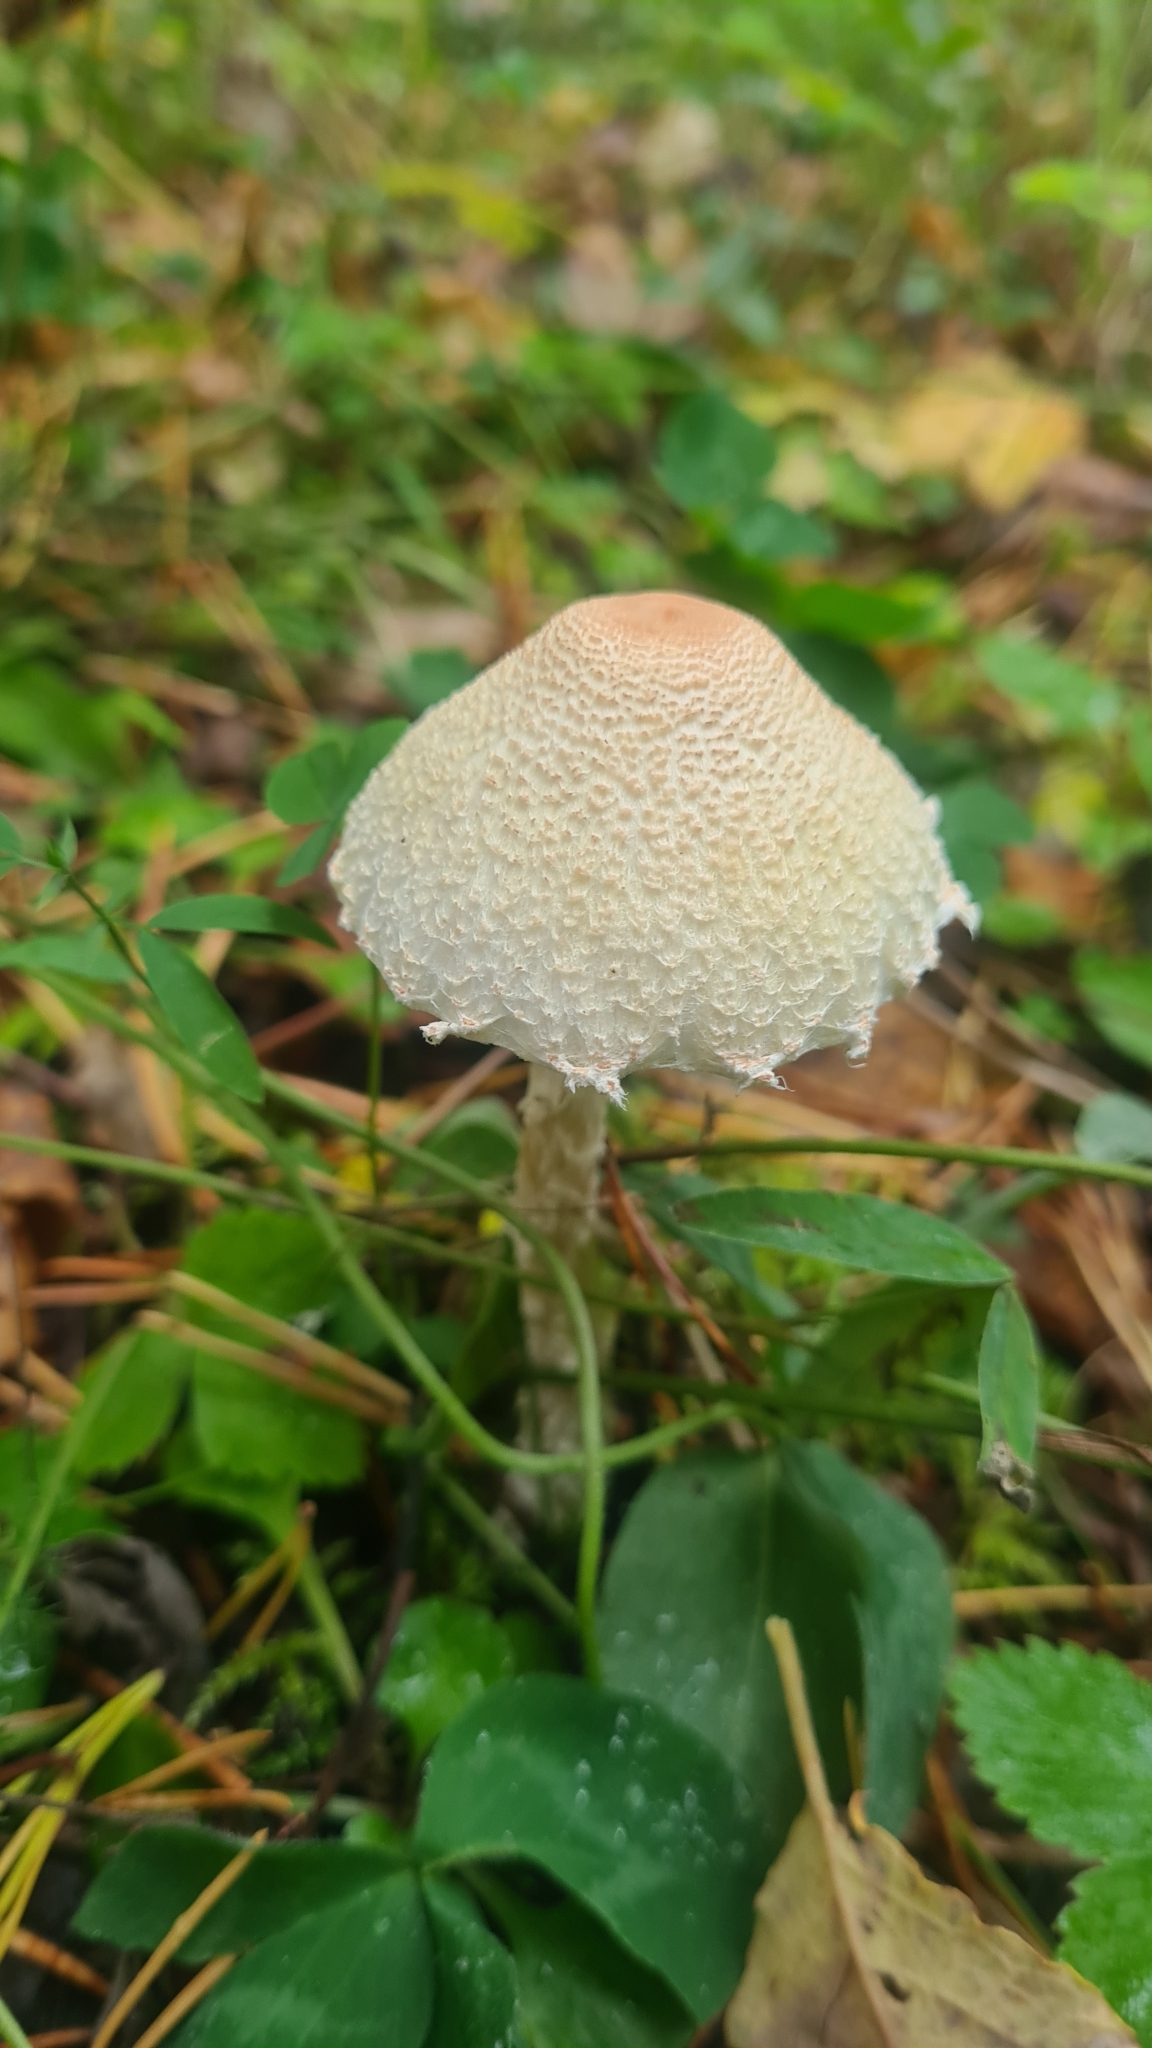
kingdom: Fungi
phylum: Basidiomycota
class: Agaricomycetes
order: Agaricales
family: Agaricaceae
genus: Lepiota
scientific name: Lepiota clypeolaria
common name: Shield dapperling
